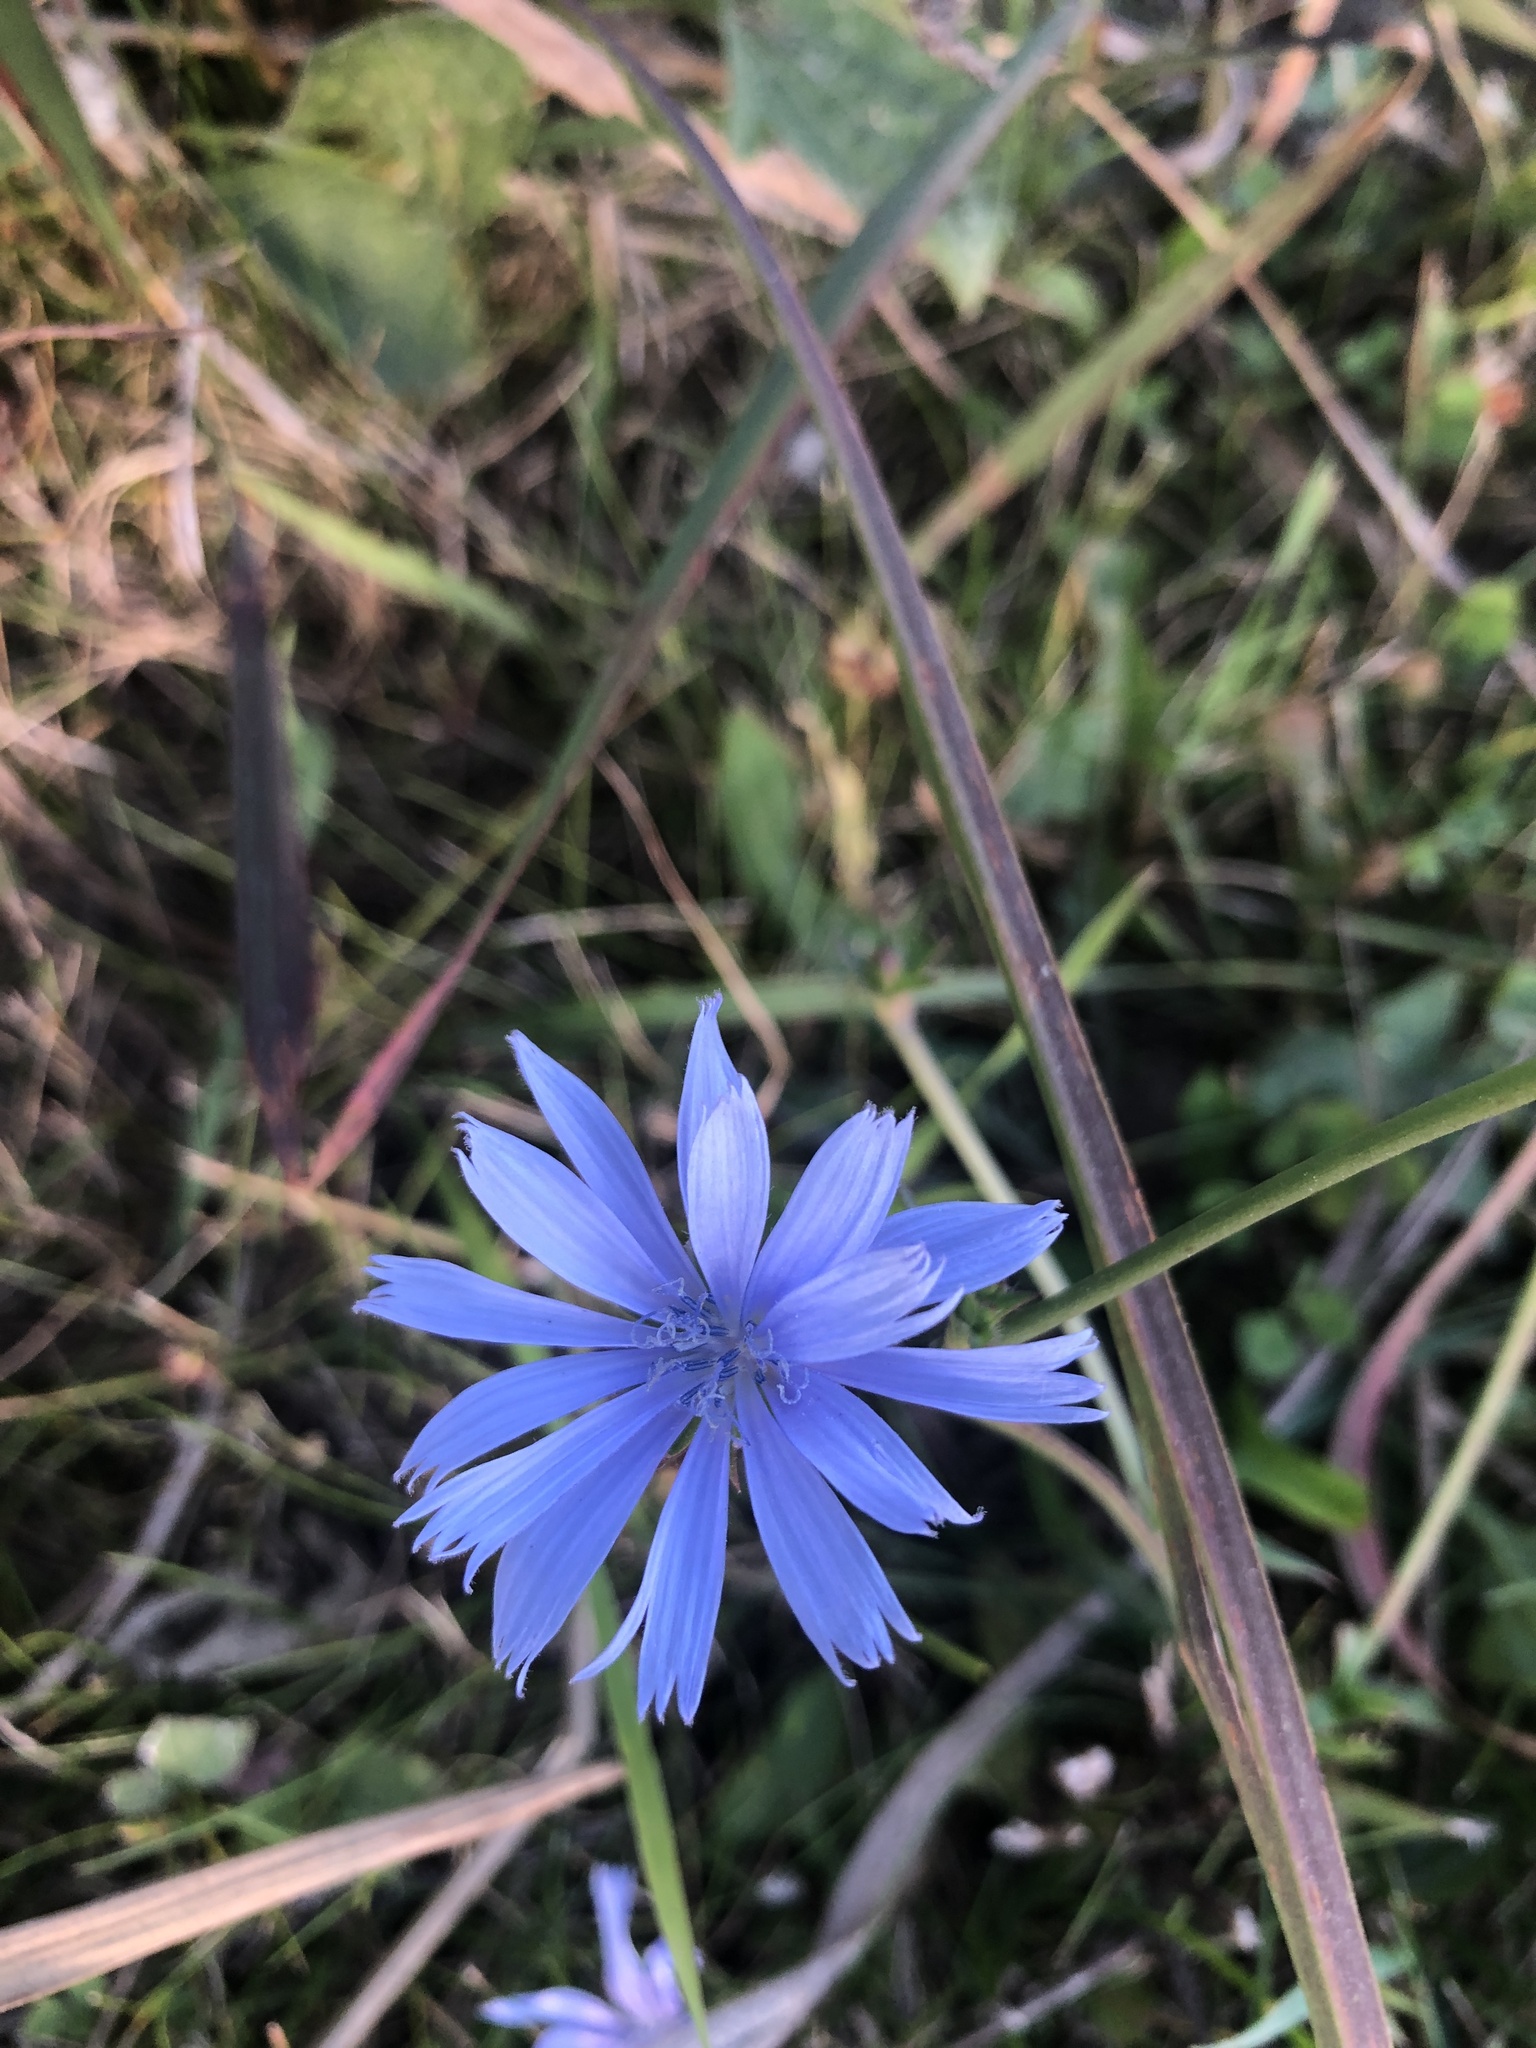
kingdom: Plantae
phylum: Tracheophyta
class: Magnoliopsida
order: Asterales
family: Asteraceae
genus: Cichorium
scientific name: Cichorium intybus
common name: Chicory
